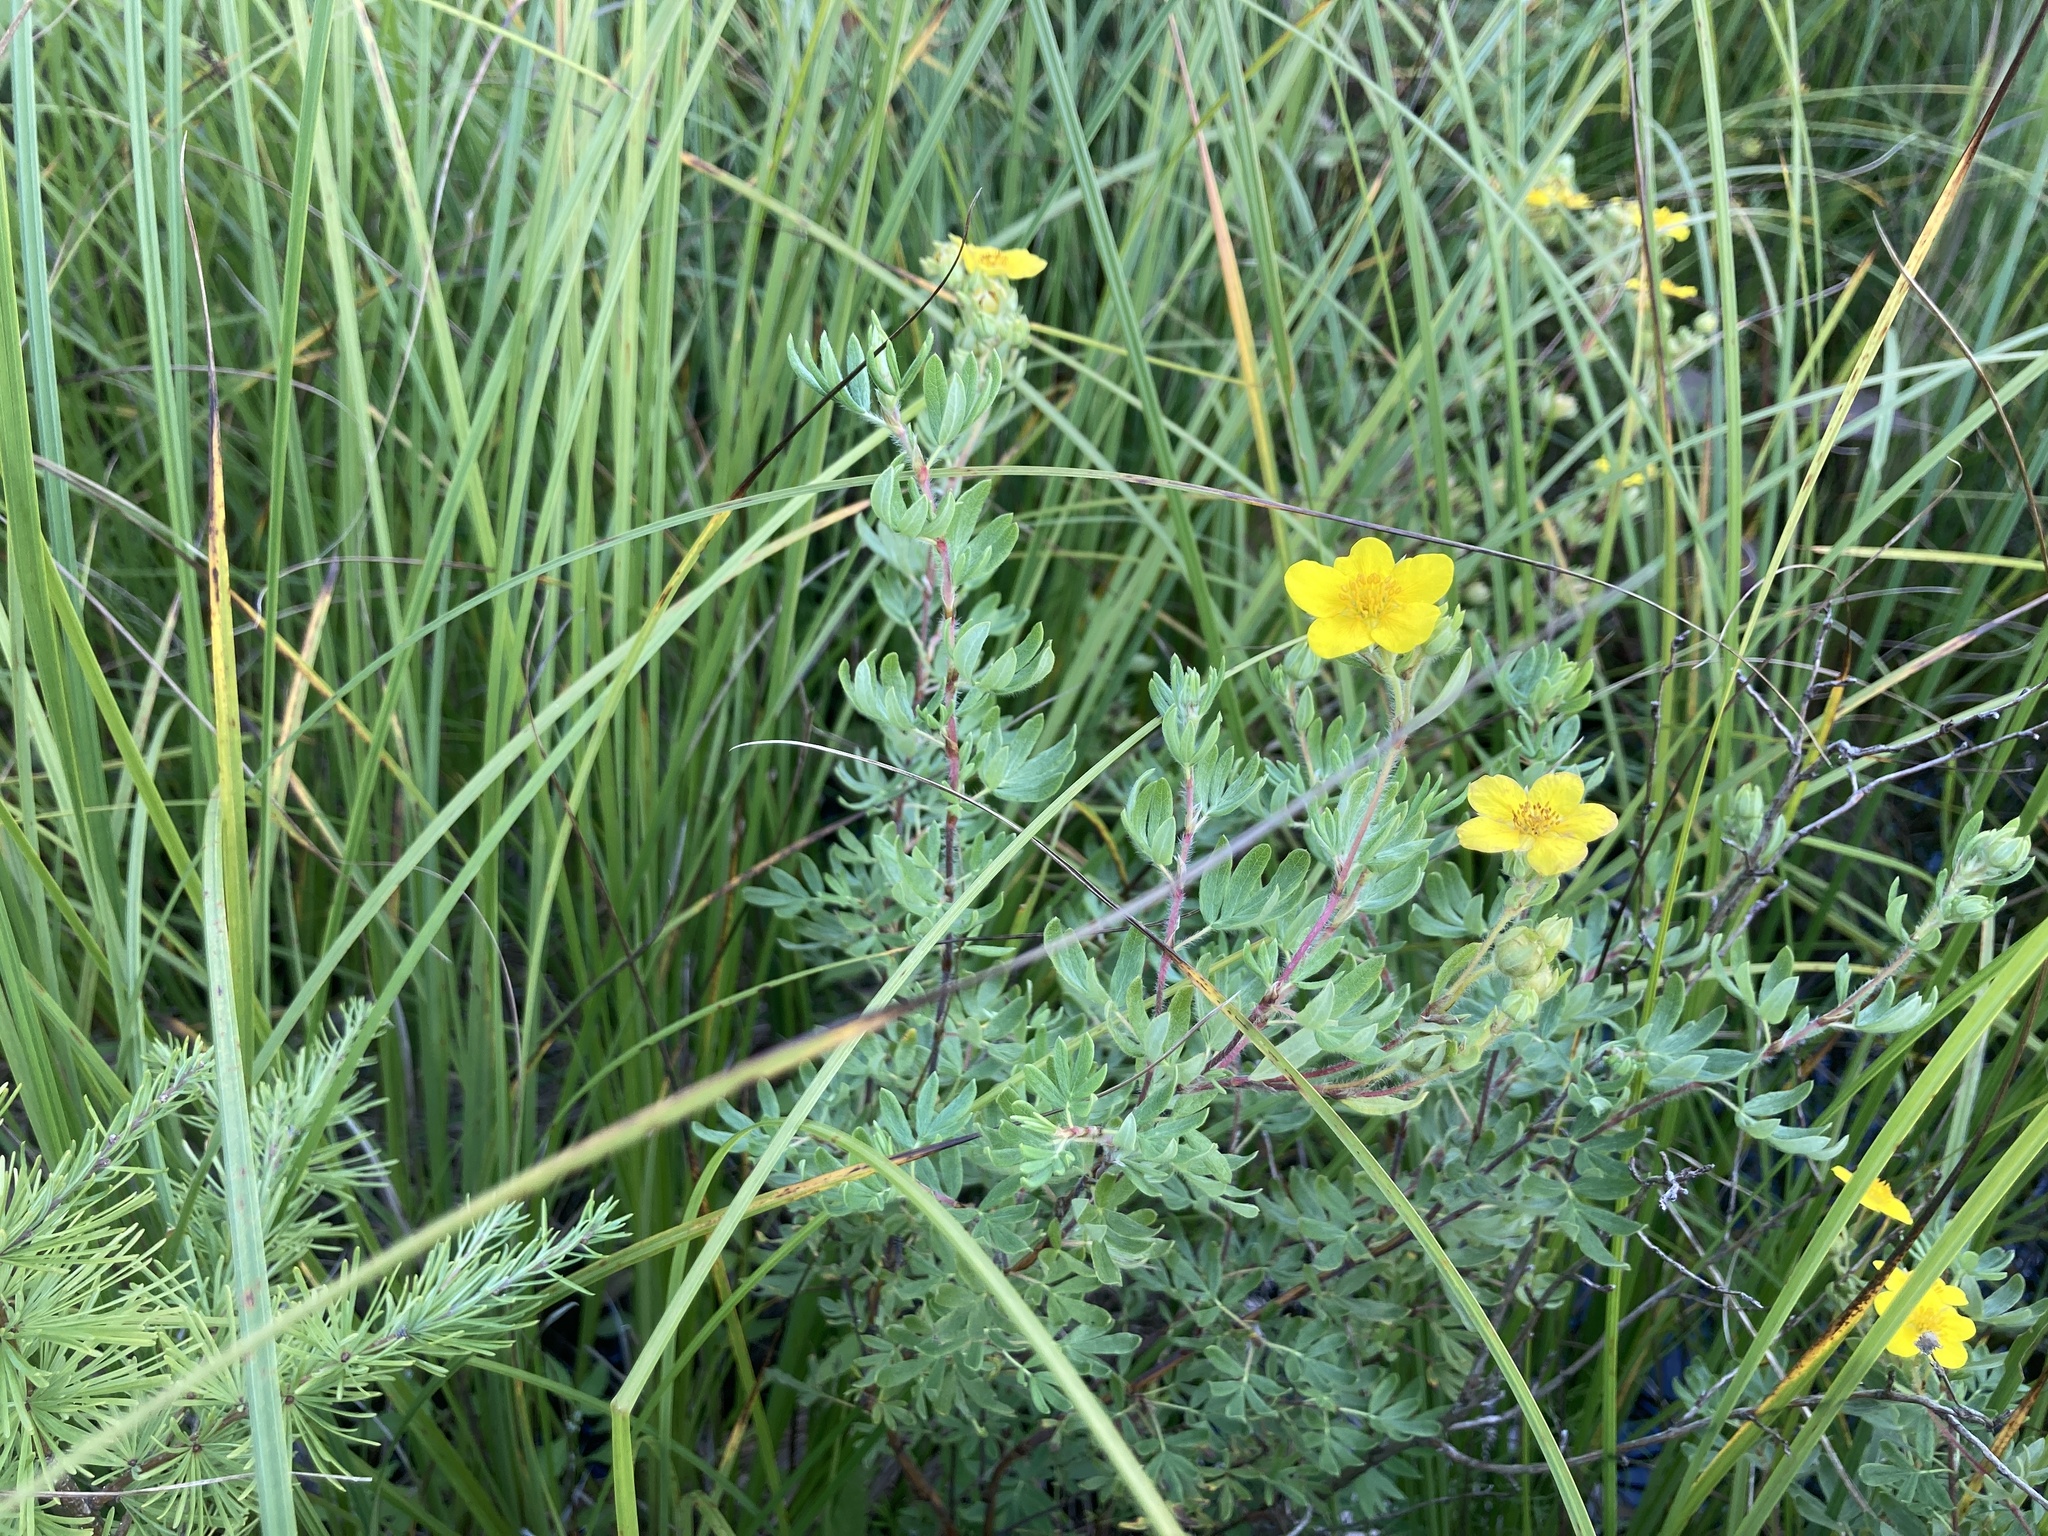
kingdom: Plantae
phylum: Tracheophyta
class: Magnoliopsida
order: Rosales
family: Rosaceae
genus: Dasiphora
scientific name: Dasiphora fruticosa
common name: Shrubby cinquefoil
